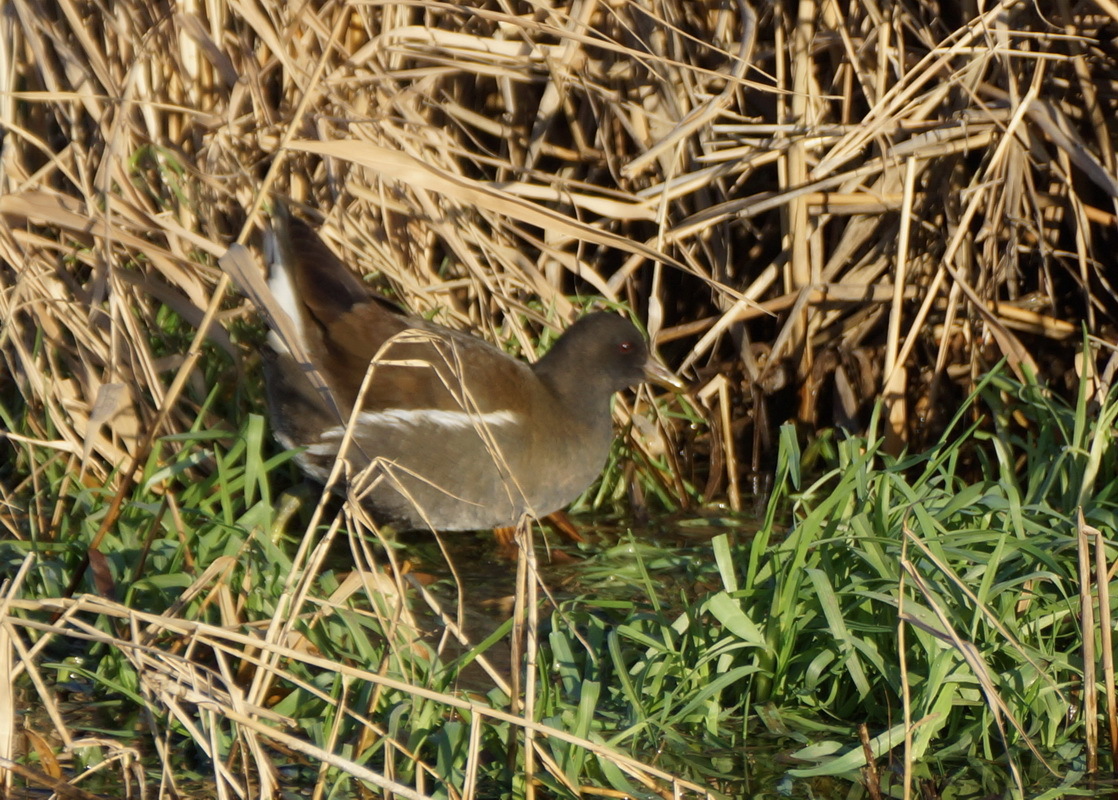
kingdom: Animalia
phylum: Chordata
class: Aves
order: Gruiformes
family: Rallidae
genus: Gallinula
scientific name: Gallinula chloropus
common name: Common moorhen
